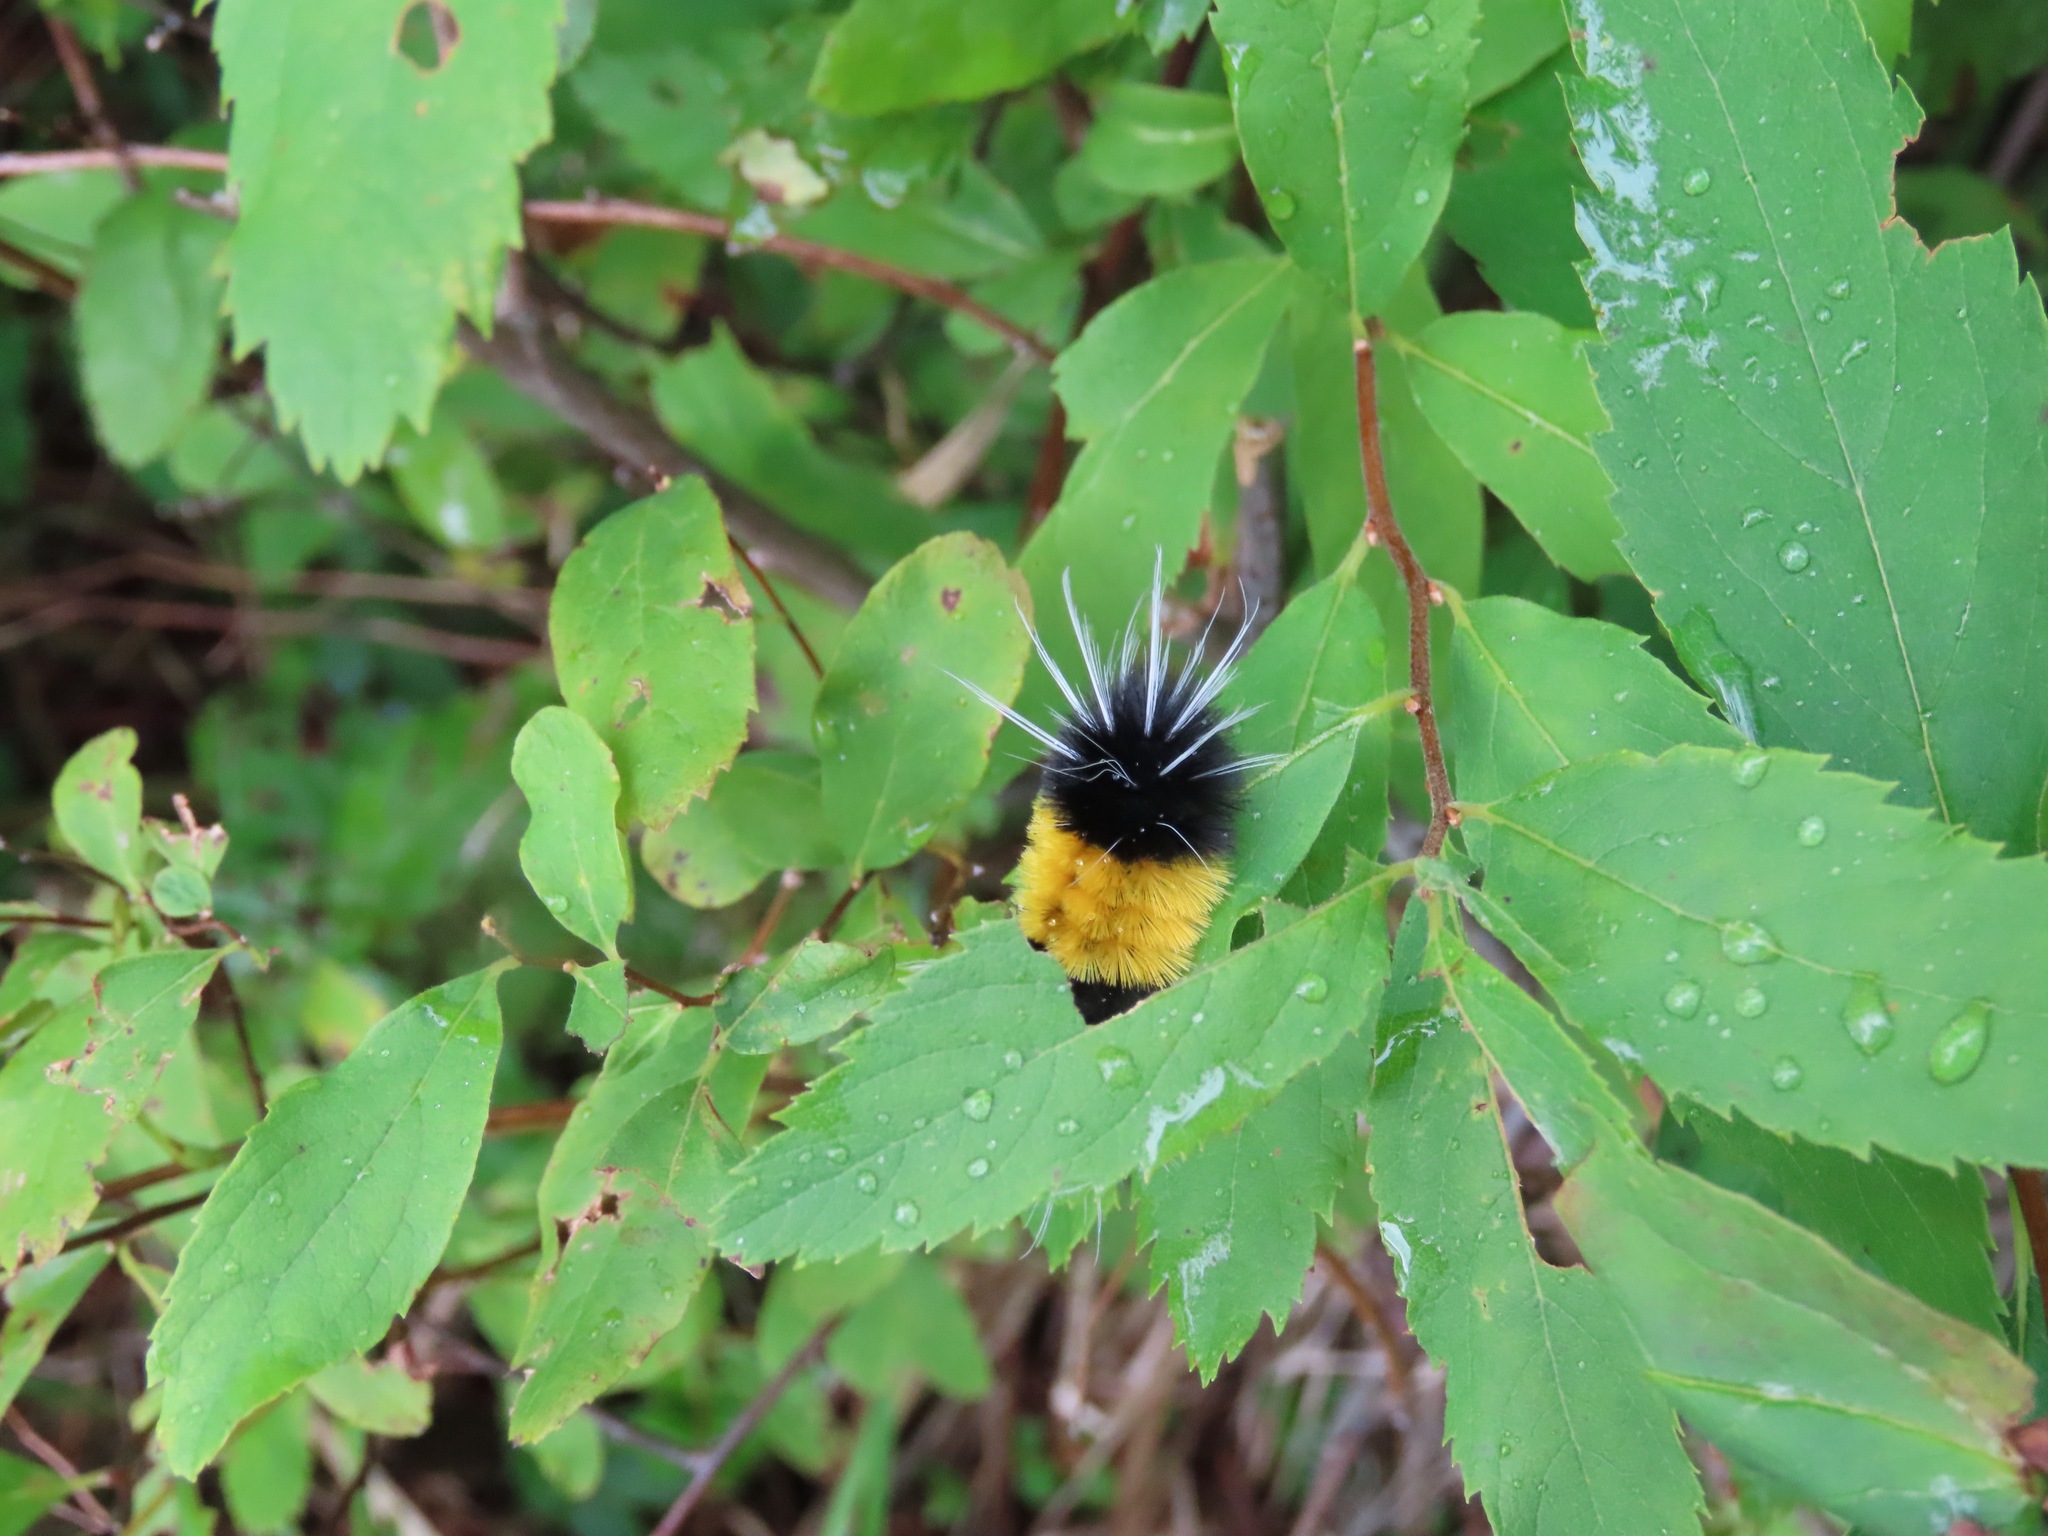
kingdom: Animalia
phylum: Arthropoda
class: Insecta
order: Lepidoptera
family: Erebidae
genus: Lophocampa
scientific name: Lophocampa maculata
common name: Spotted tussock moth
